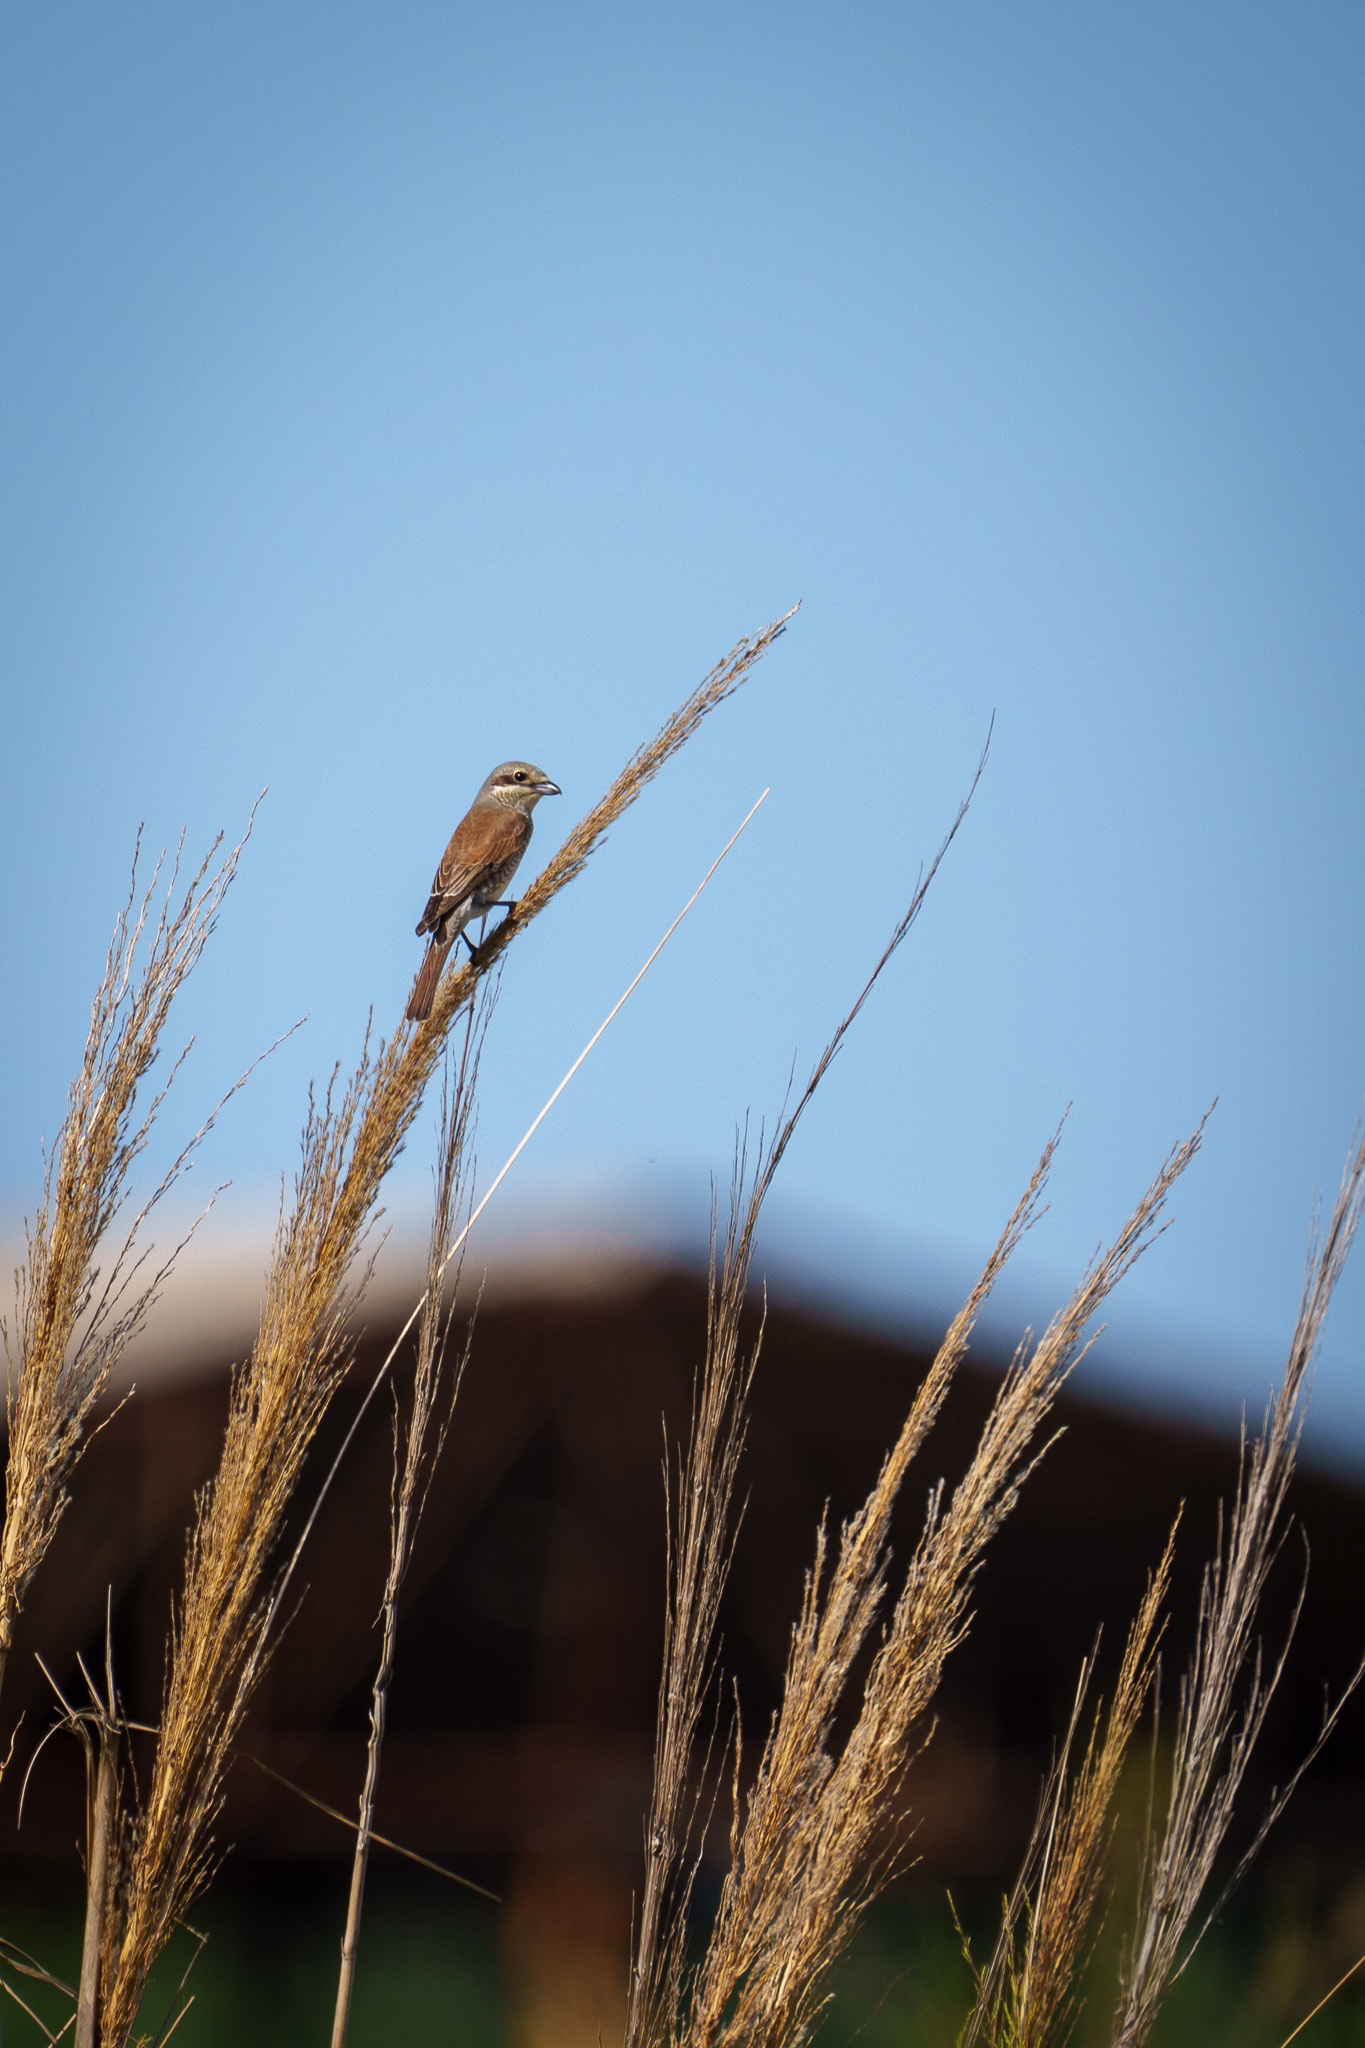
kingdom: Animalia
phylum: Chordata
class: Aves
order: Passeriformes
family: Laniidae
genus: Lanius
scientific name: Lanius collurio
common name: Red-backed shrike
